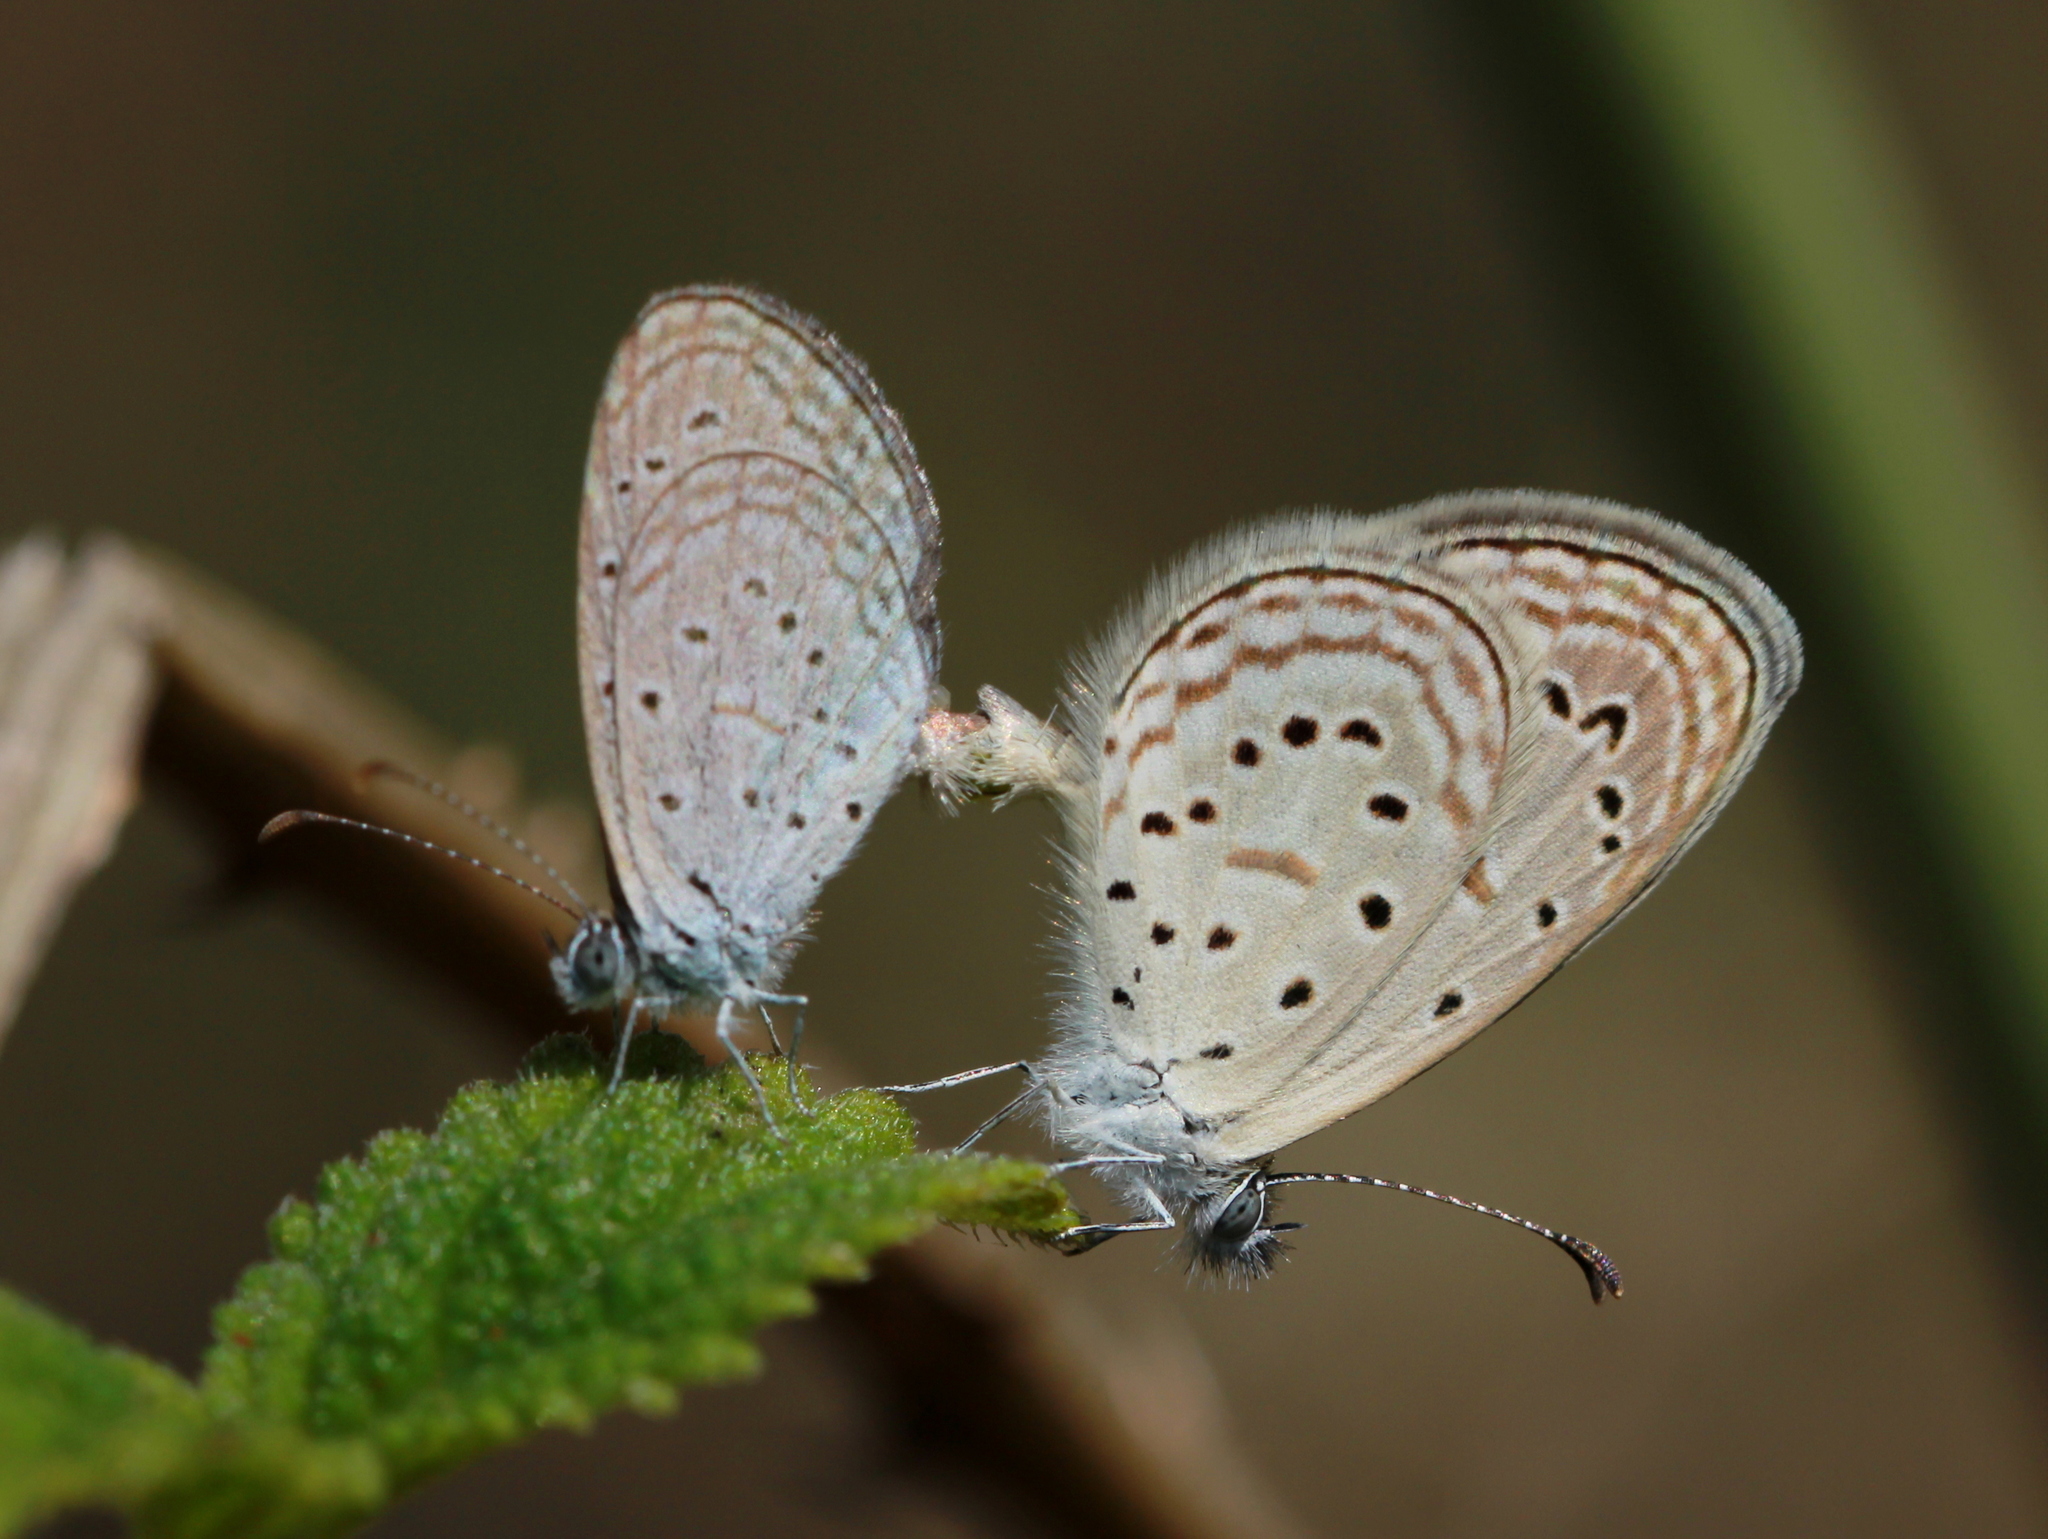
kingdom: Animalia
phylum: Arthropoda
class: Insecta
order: Lepidoptera
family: Lycaenidae
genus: Zizula
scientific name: Zizula hylax
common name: Gaika blue
